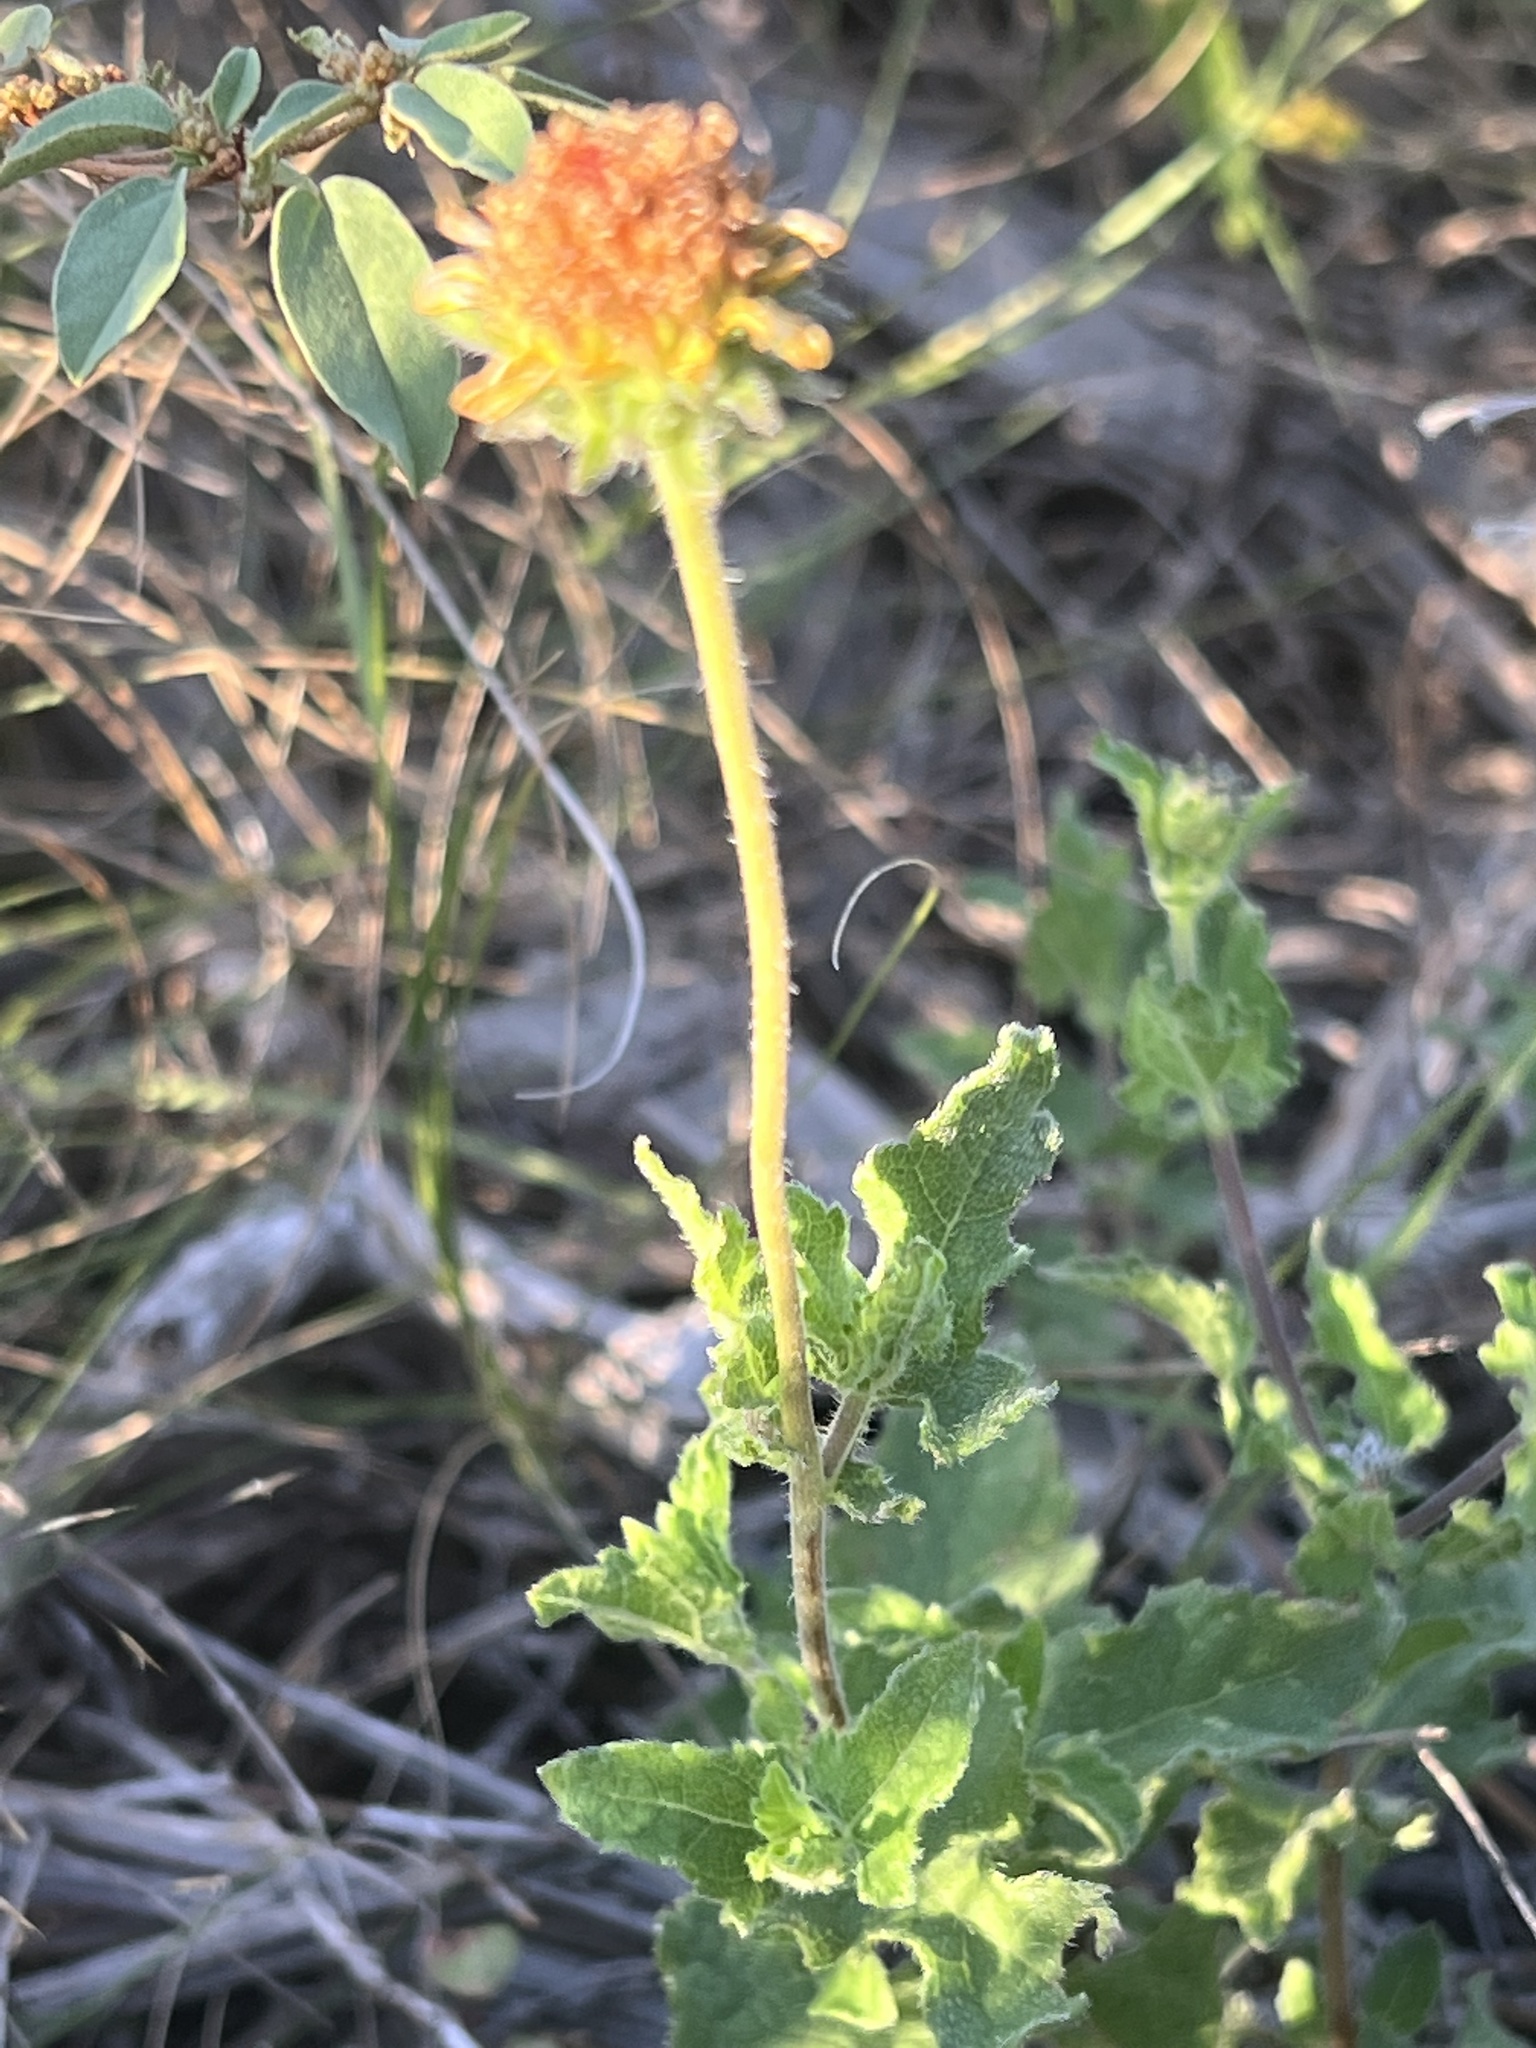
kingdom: Plantae
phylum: Tracheophyta
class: Magnoliopsida
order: Asterales
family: Asteraceae
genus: Simsia
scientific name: Simsia calva
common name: Awnless bush-sunflower
